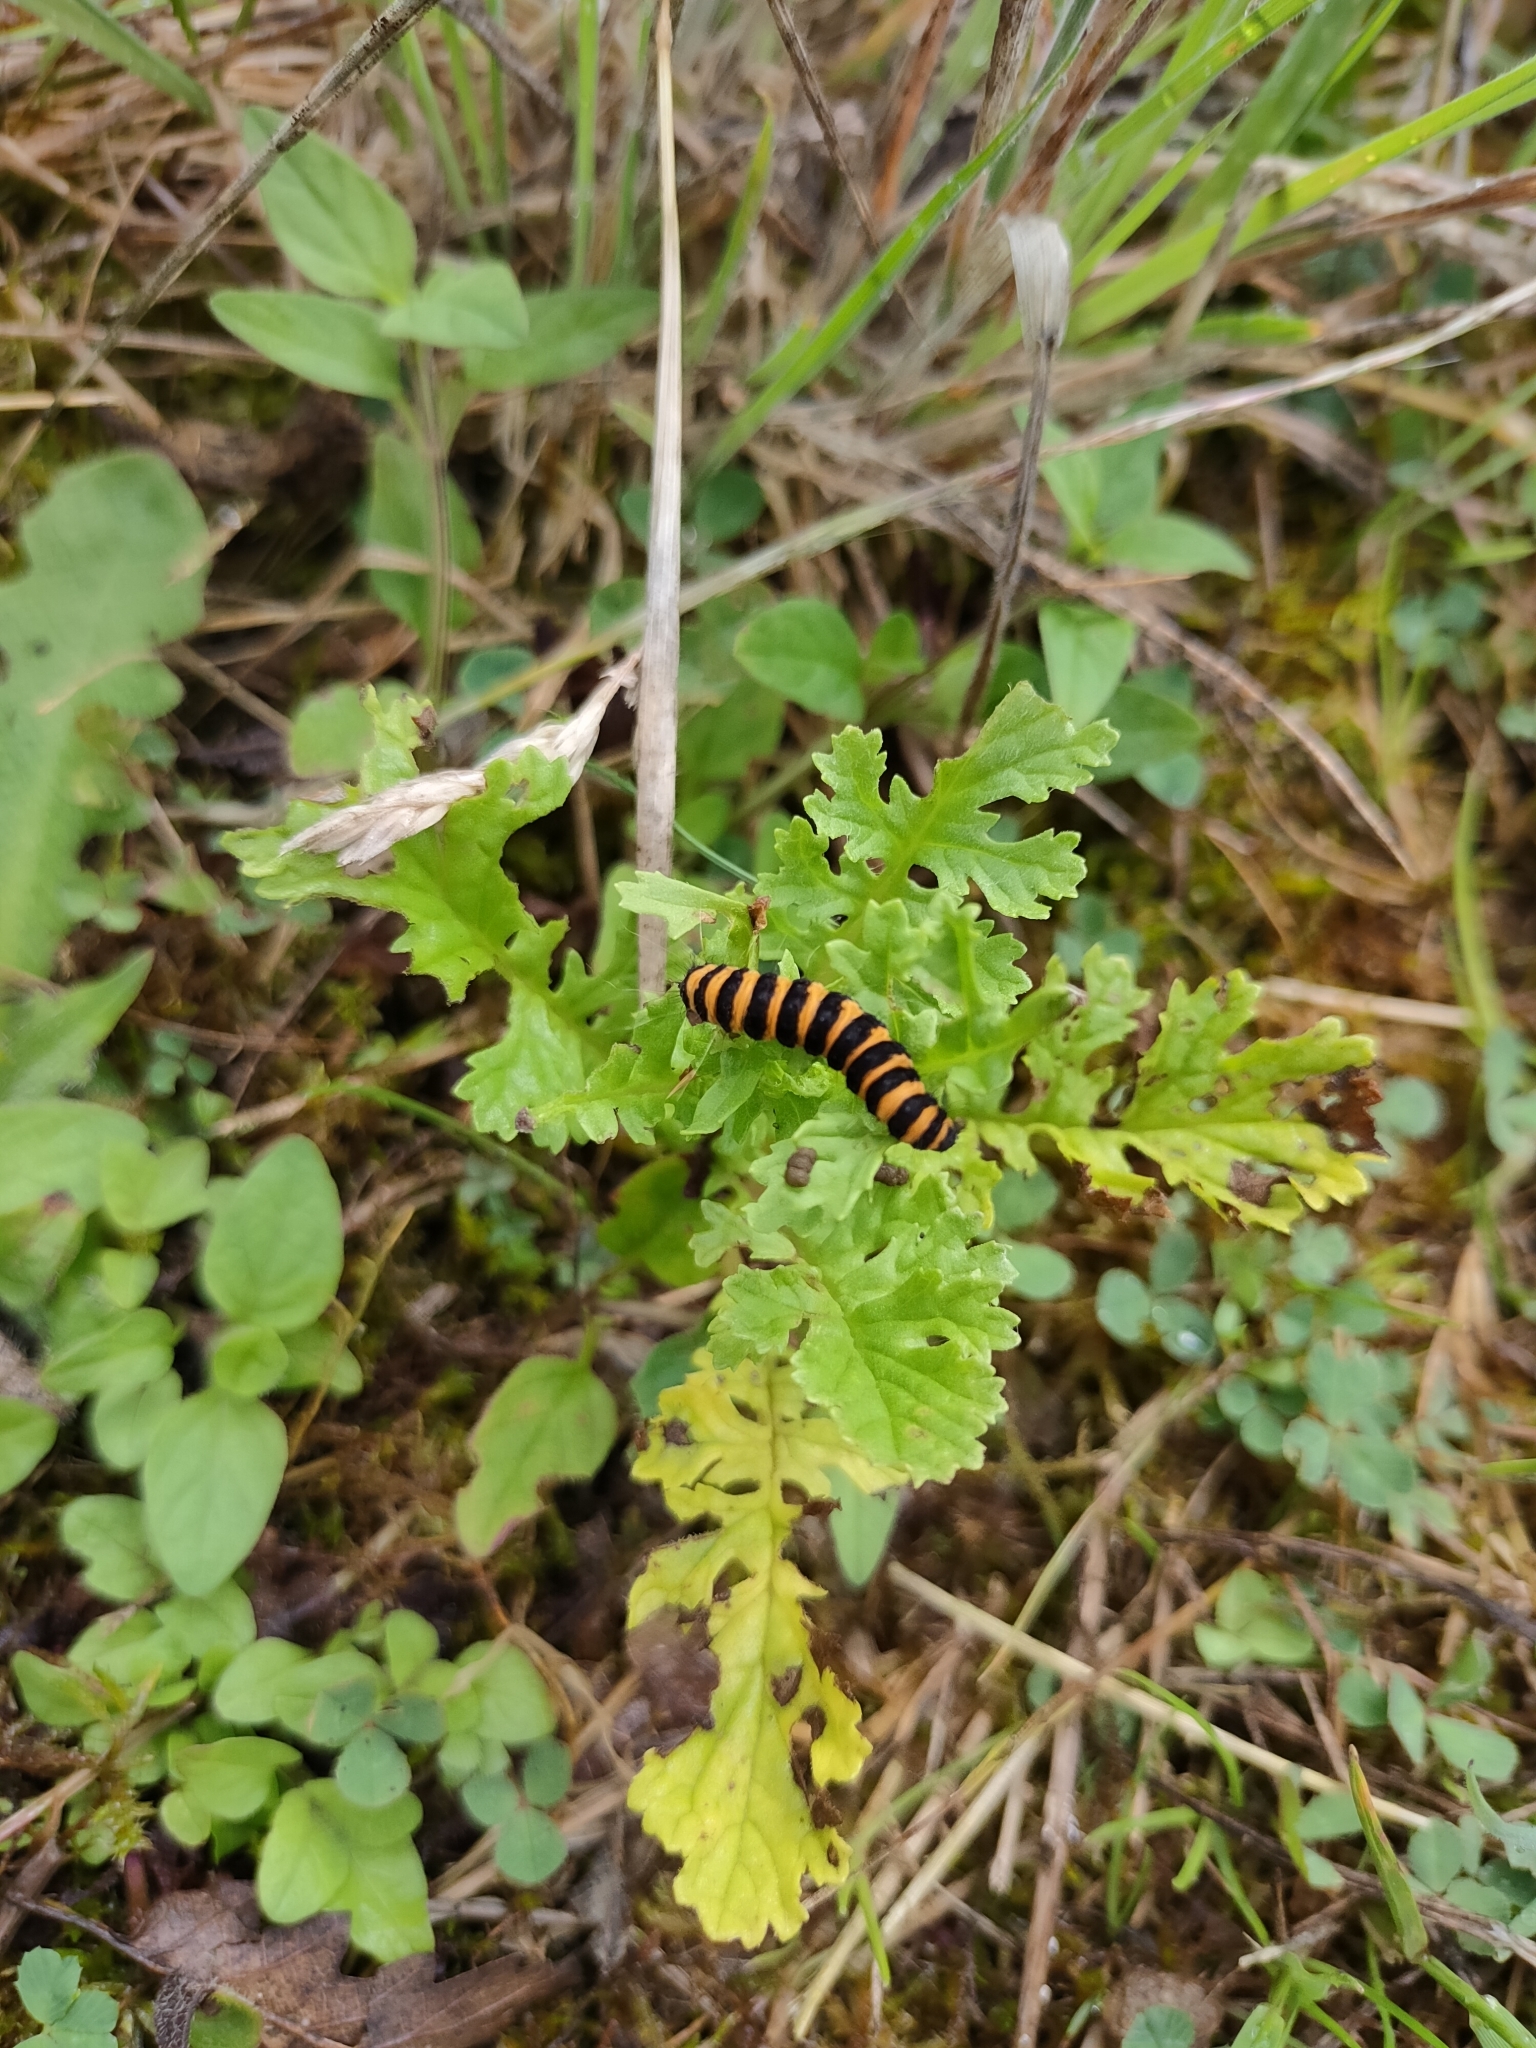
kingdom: Animalia
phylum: Arthropoda
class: Insecta
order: Lepidoptera
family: Erebidae
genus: Tyria
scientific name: Tyria jacobaeae
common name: Cinnabar
